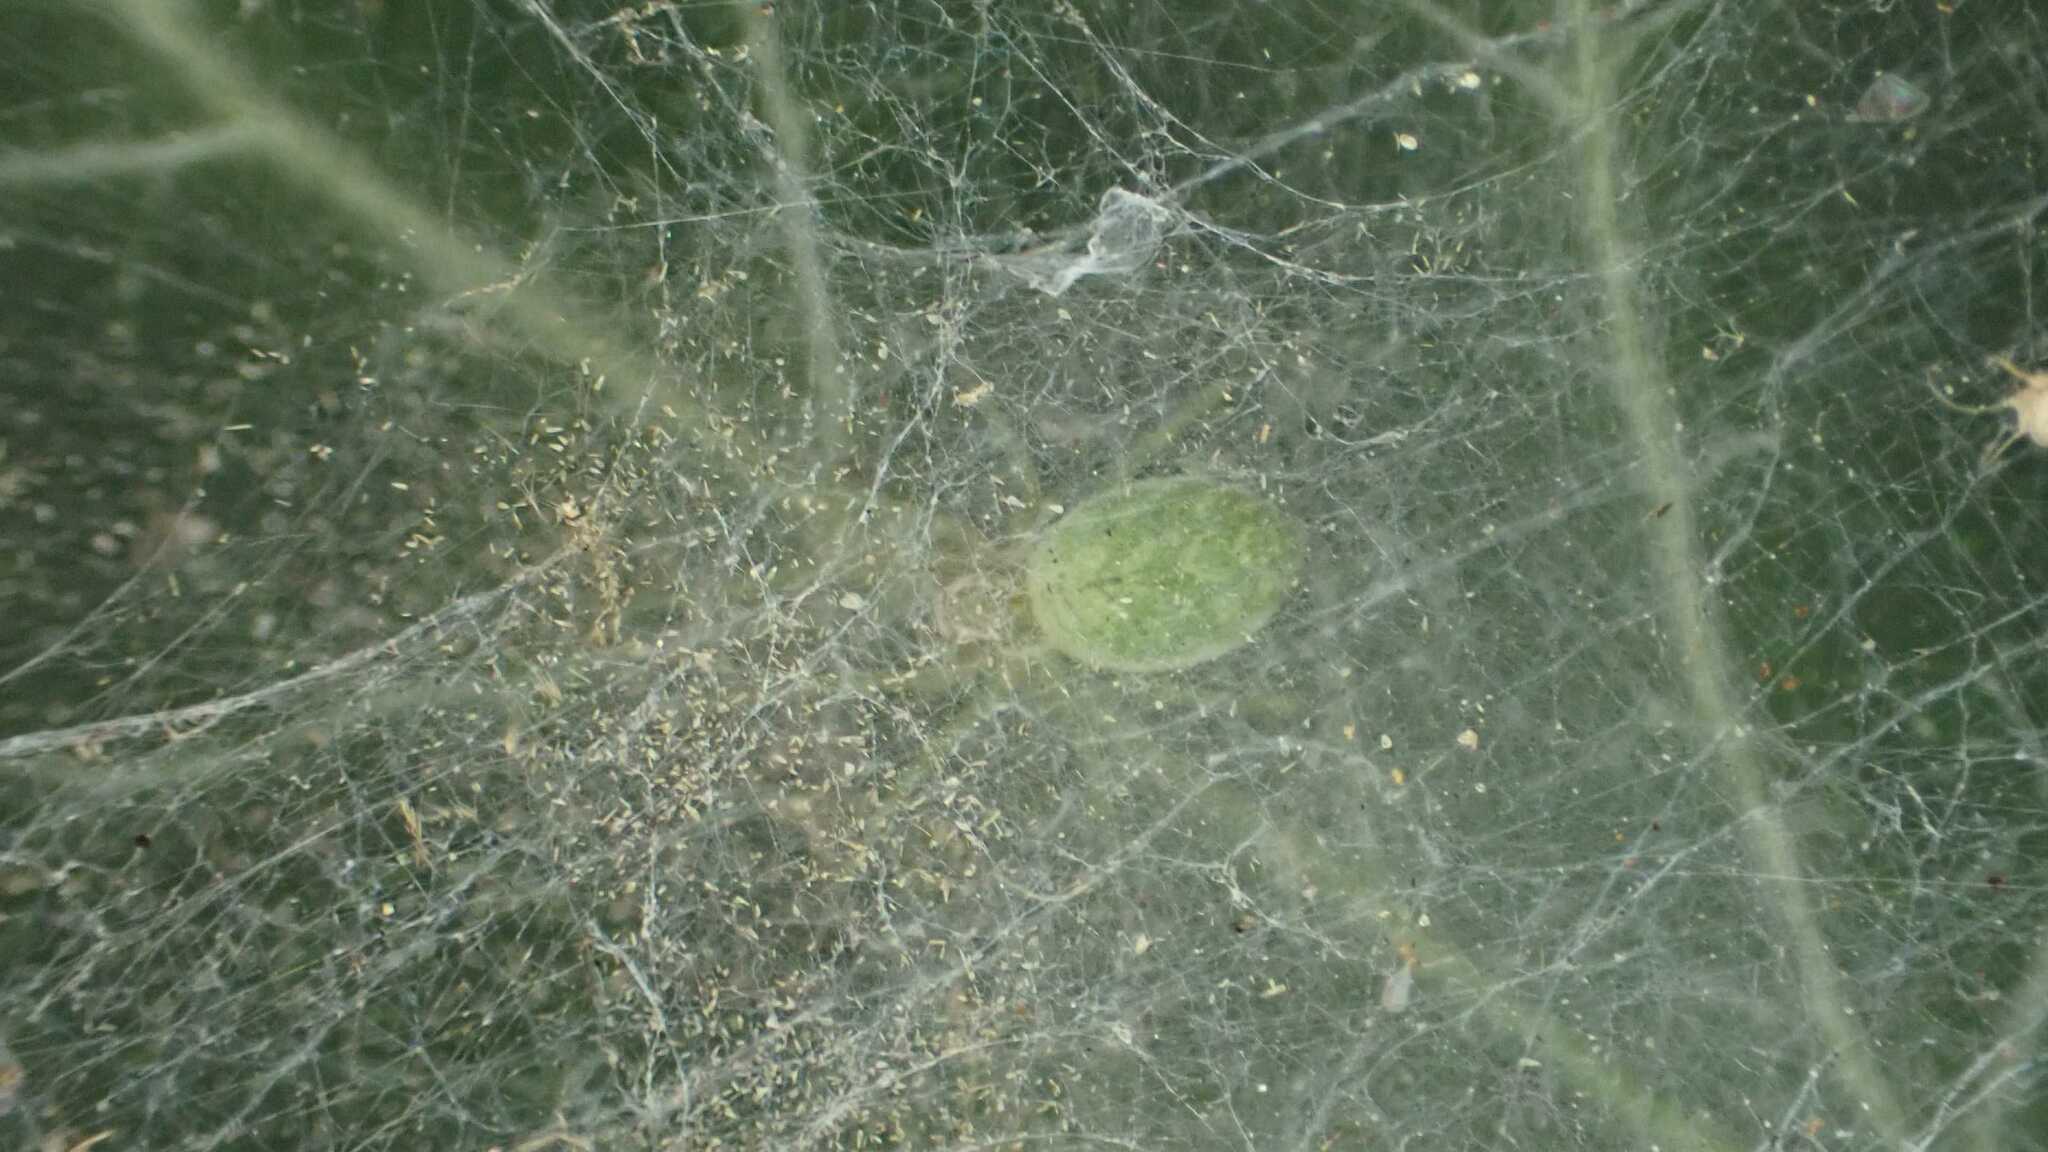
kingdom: Animalia
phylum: Arthropoda
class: Arachnida
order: Araneae
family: Dictynidae
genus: Nigma
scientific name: Nigma walckenaeri
